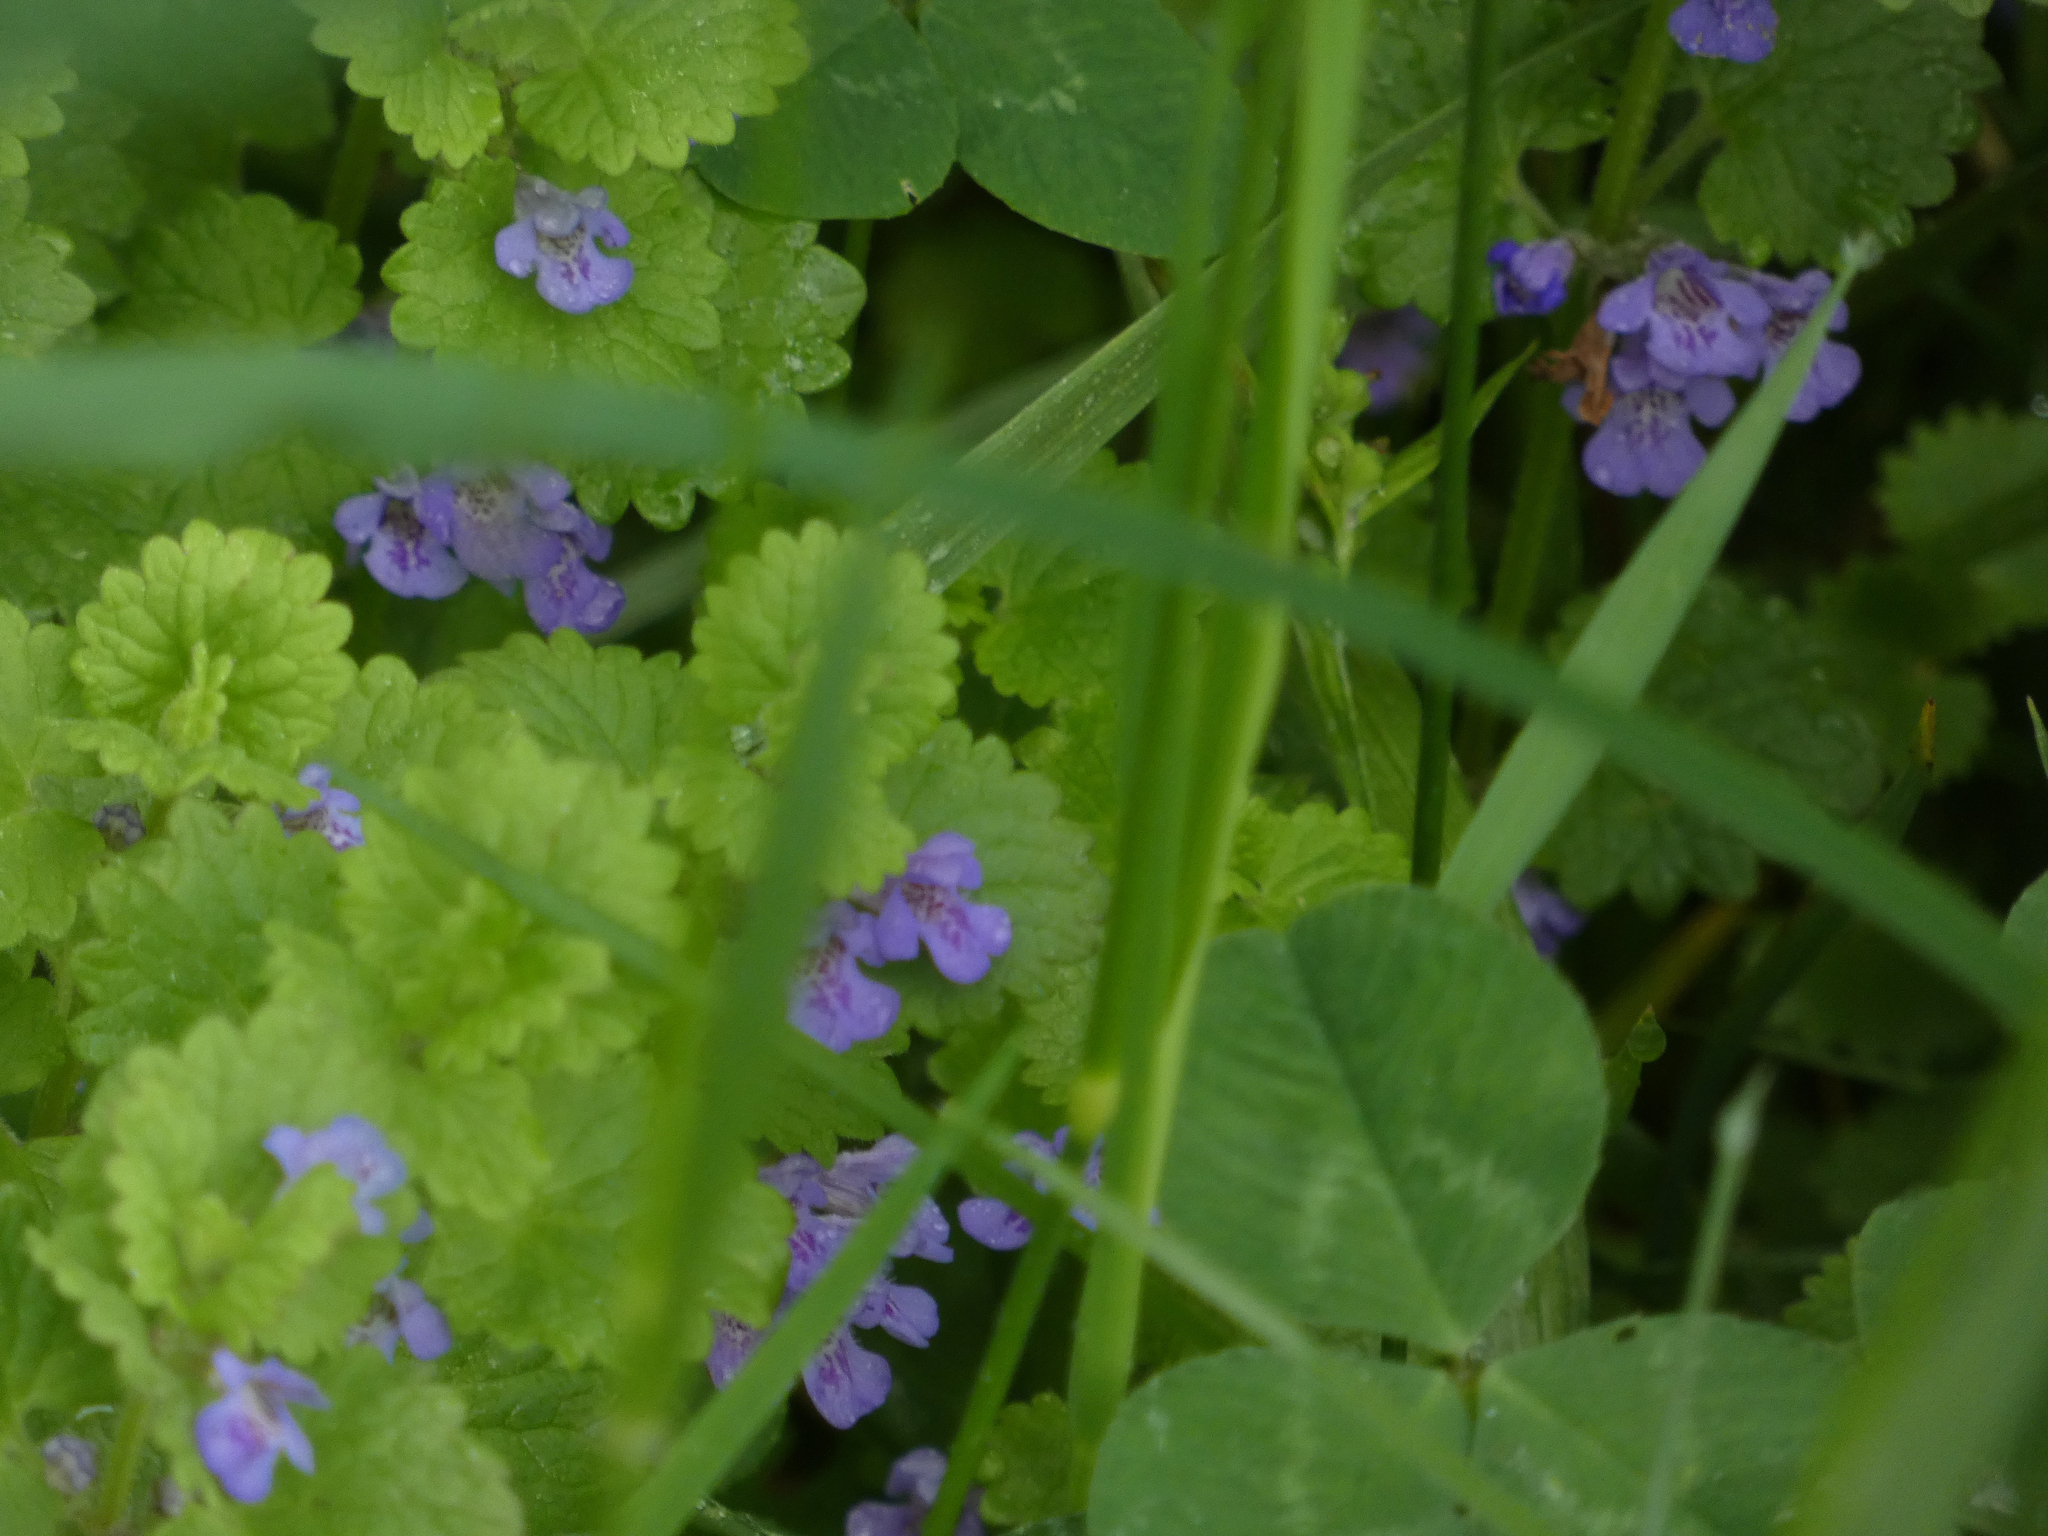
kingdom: Plantae
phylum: Tracheophyta
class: Magnoliopsida
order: Lamiales
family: Lamiaceae
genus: Glechoma
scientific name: Glechoma hederacea
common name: Ground ivy
